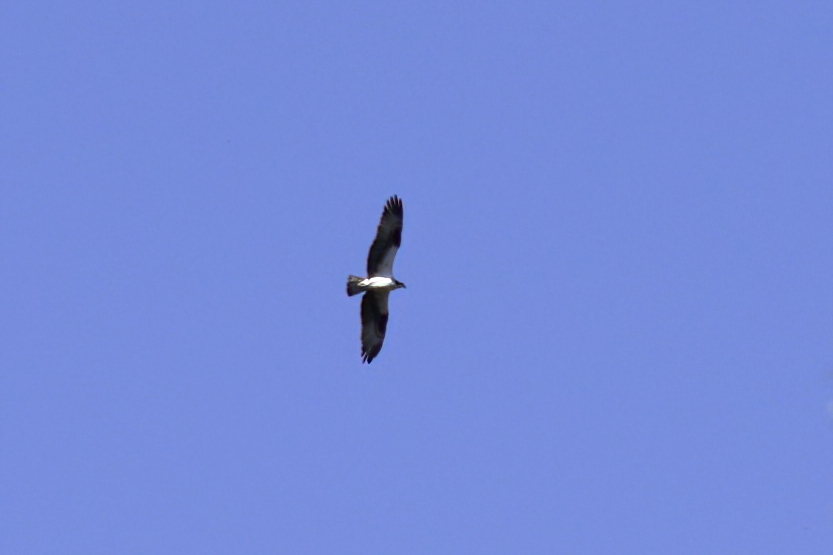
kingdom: Animalia
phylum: Chordata
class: Aves
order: Accipitriformes
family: Pandionidae
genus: Pandion
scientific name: Pandion haliaetus
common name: Osprey
